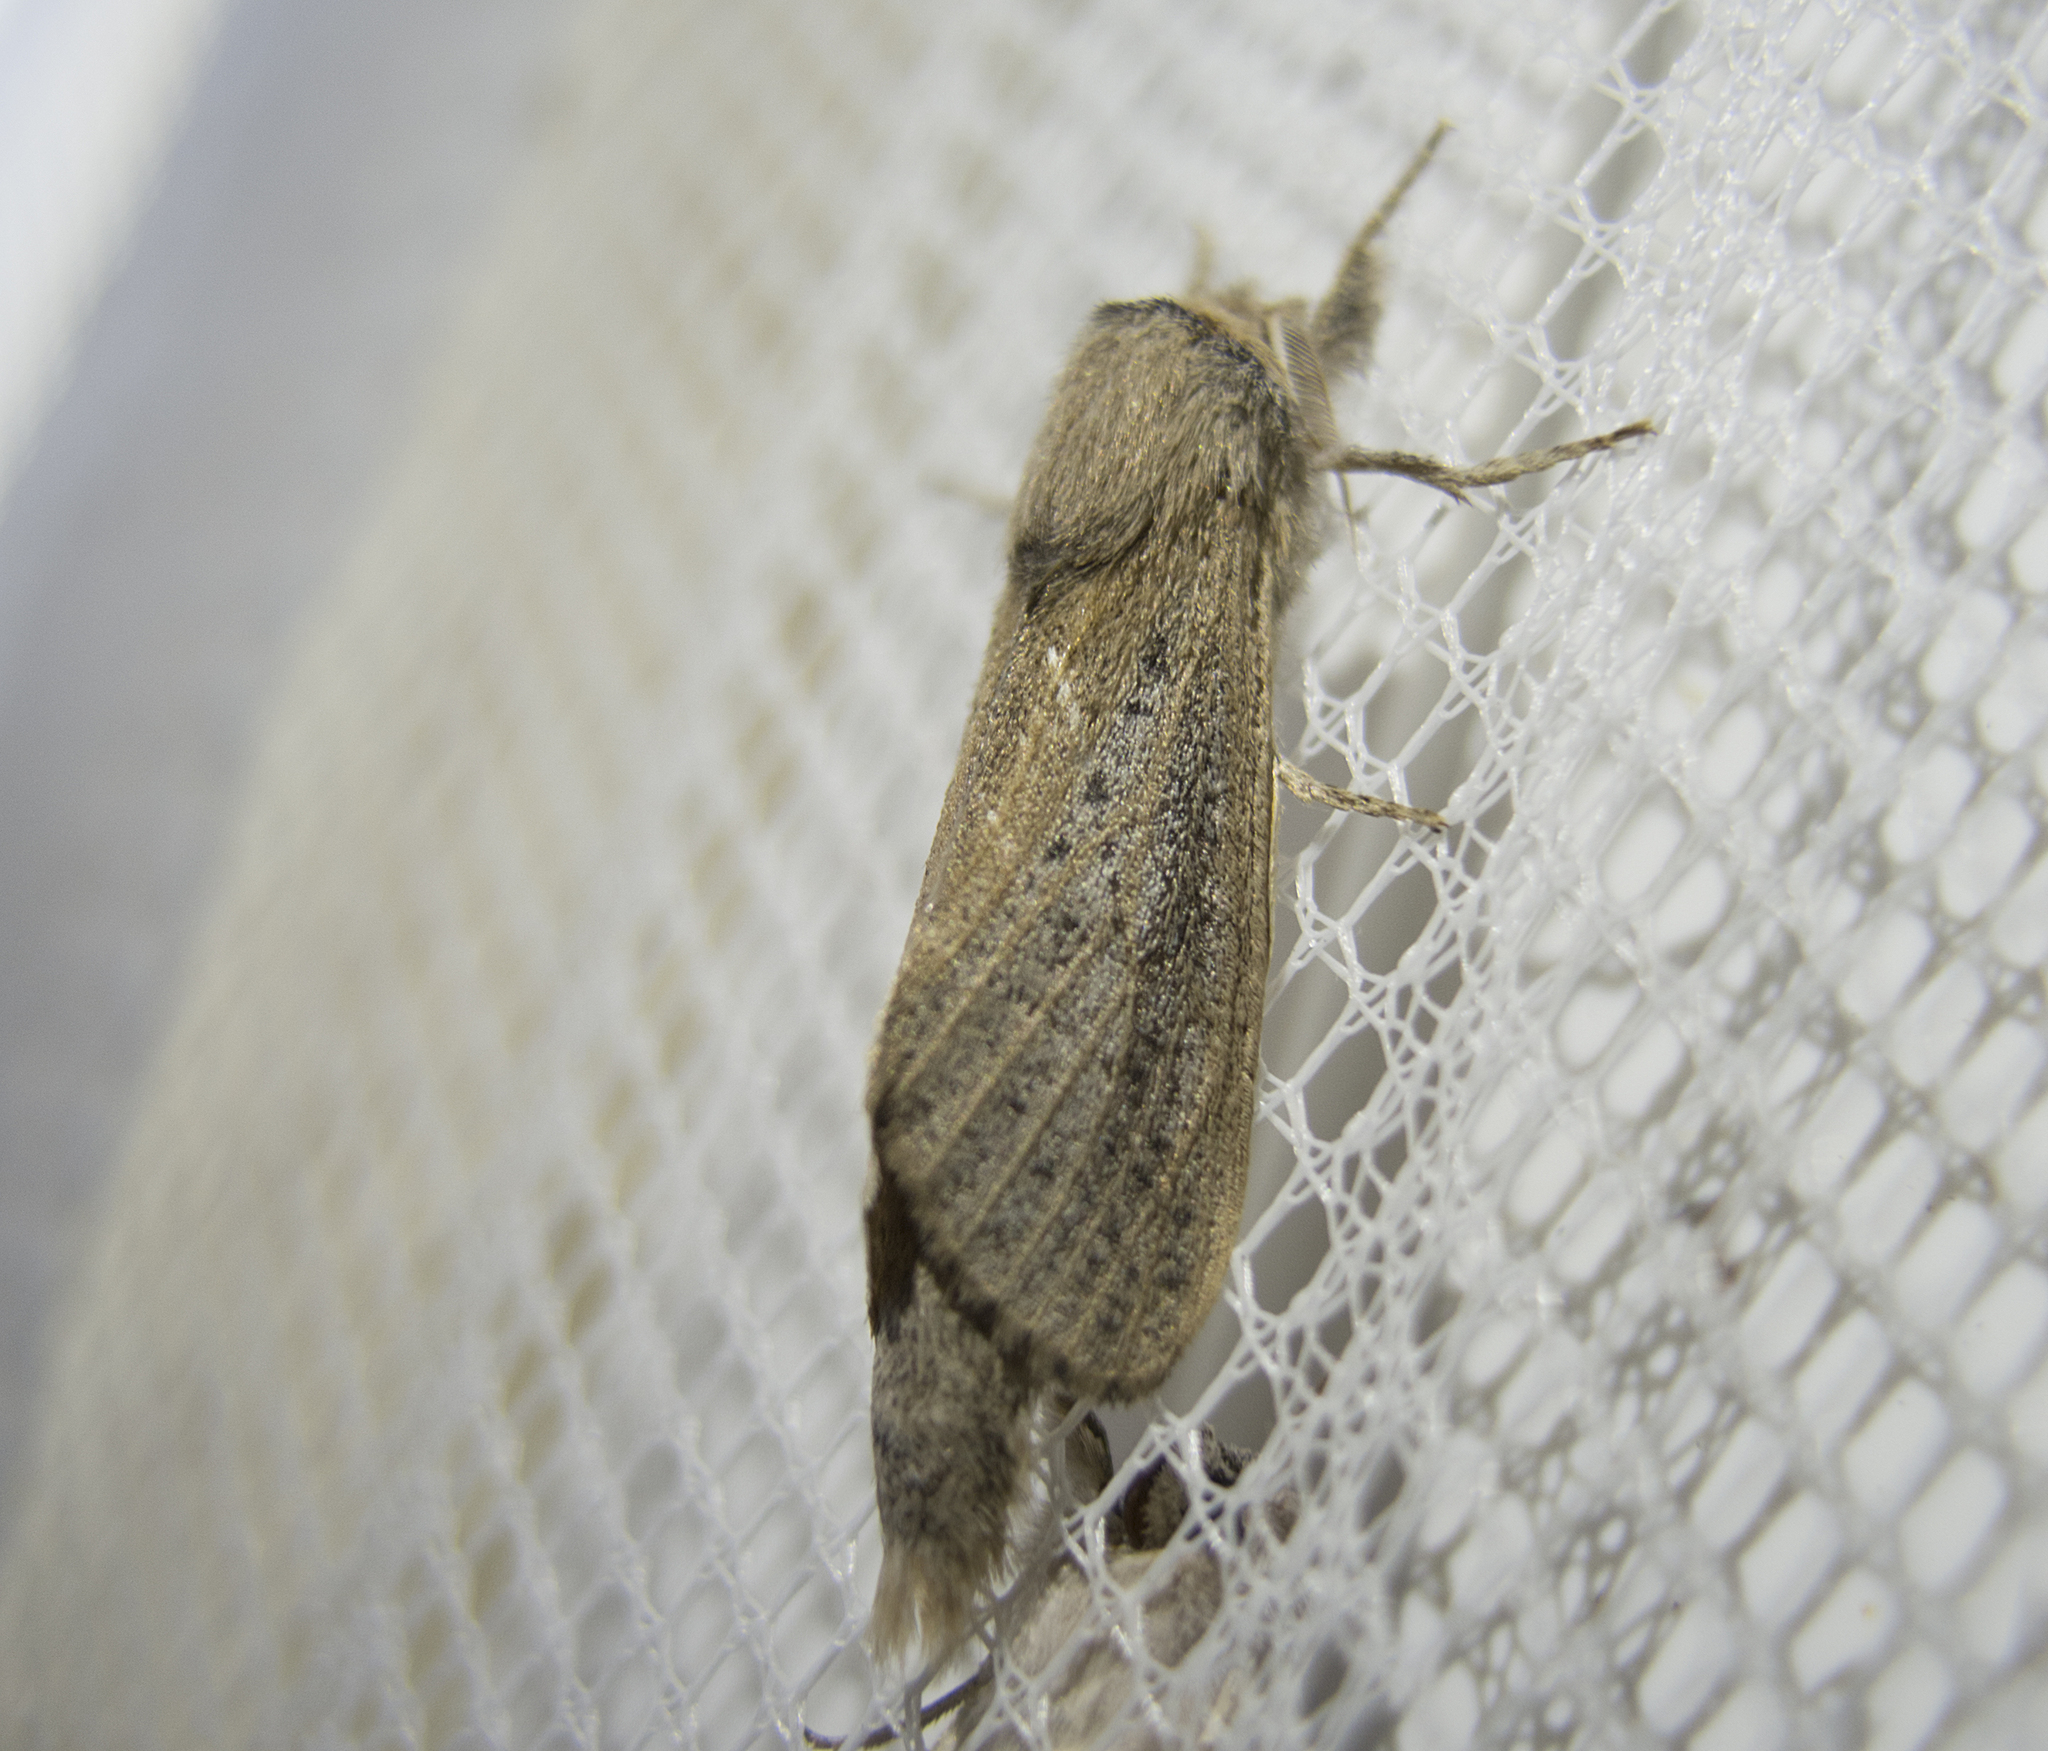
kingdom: Animalia
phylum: Arthropoda
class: Insecta
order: Lepidoptera
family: Cossidae
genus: Phragmataecia
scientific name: Phragmataecia castaneae
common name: Reed leopard
